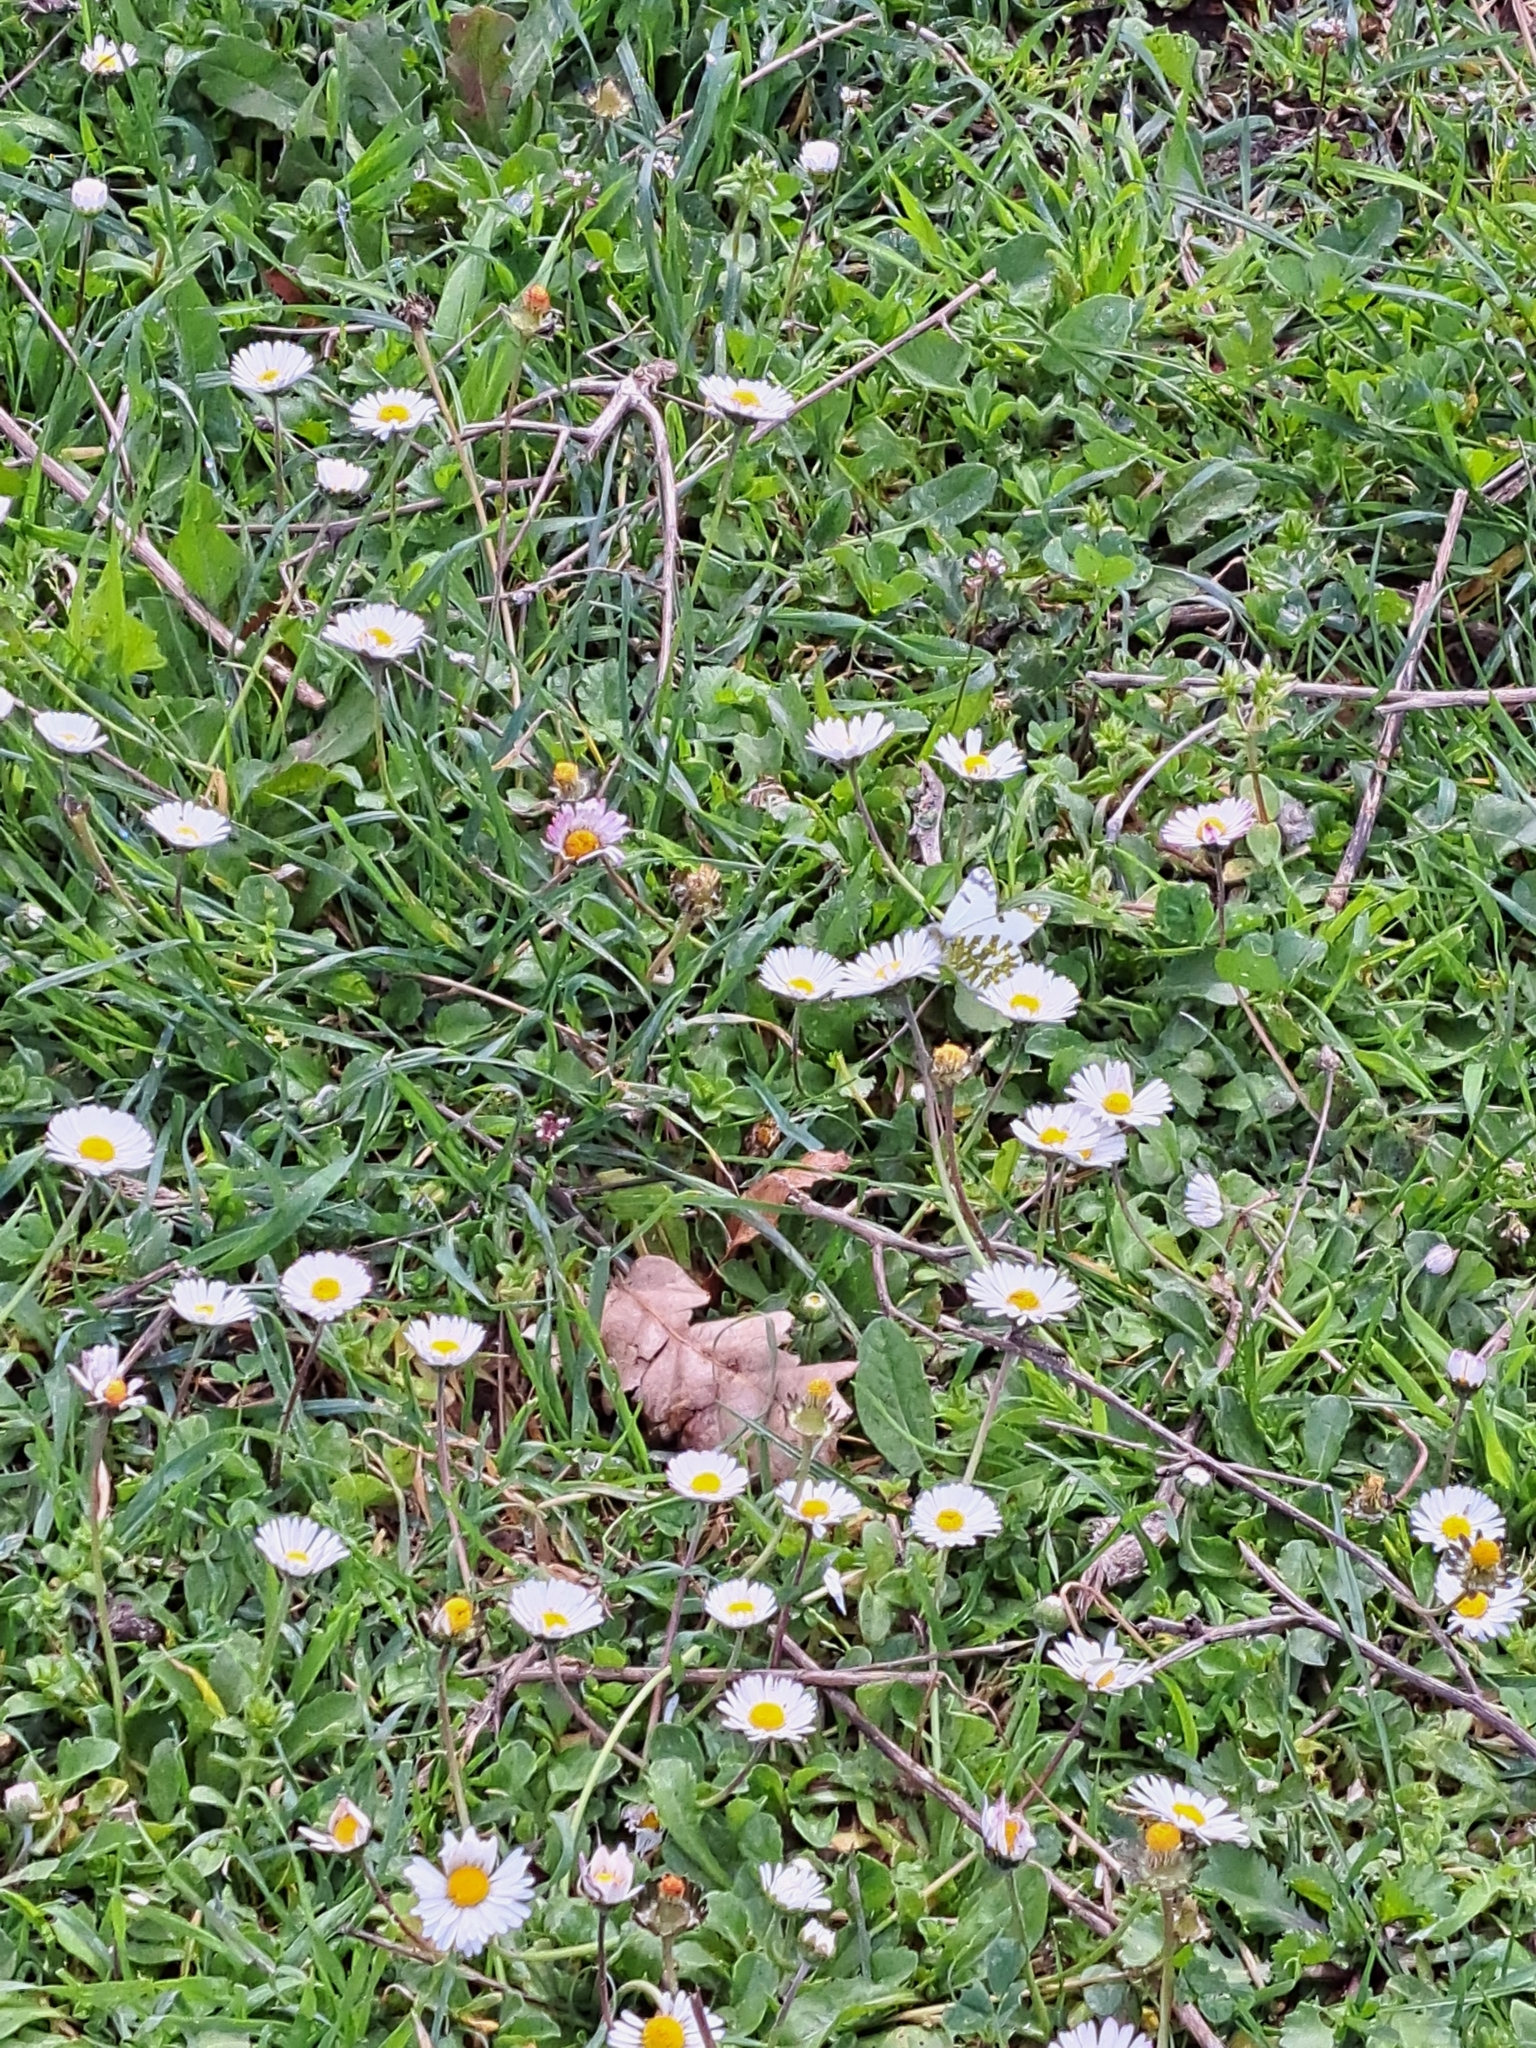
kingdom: Animalia
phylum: Arthropoda
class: Insecta
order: Lepidoptera
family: Pieridae
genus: Euchloe
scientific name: Euchloe ausonia
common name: Eastern dappled white
